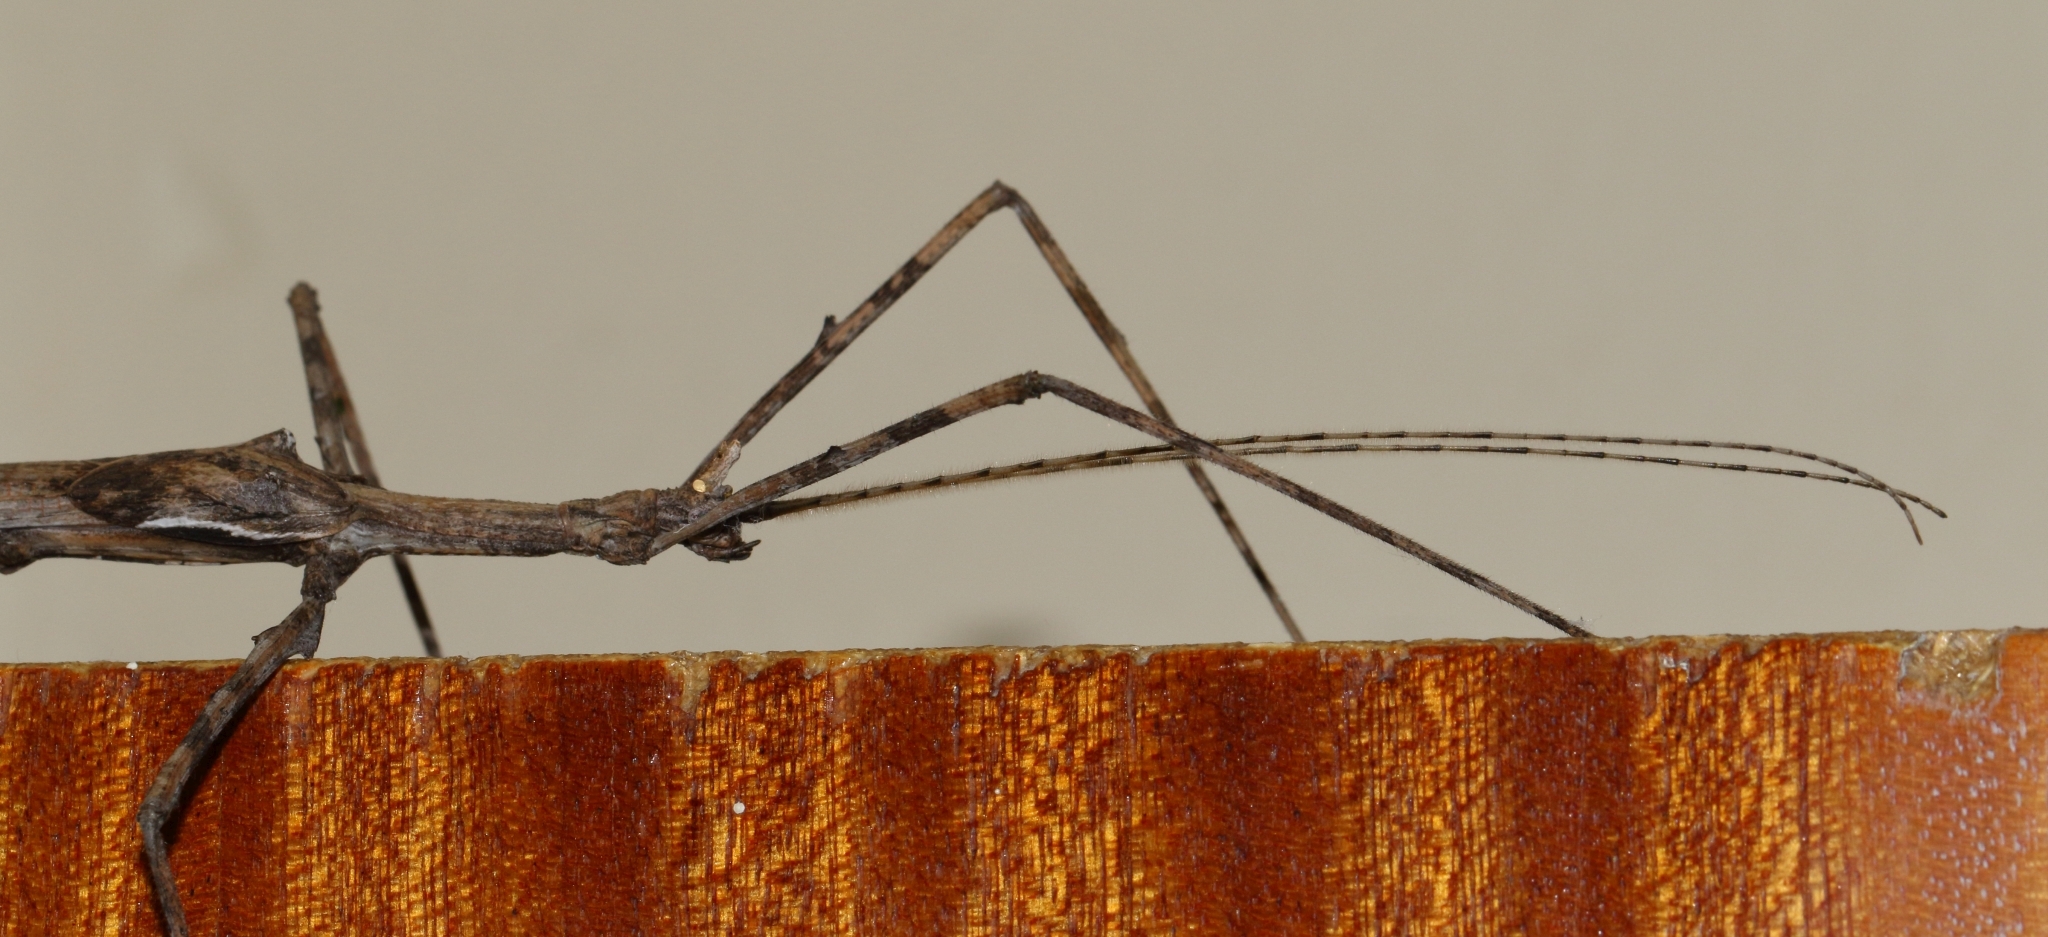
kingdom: Animalia
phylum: Arthropoda
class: Insecta
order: Phasmida
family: Diapheromeridae
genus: Bactrododema
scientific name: Bactrododema haworthii
